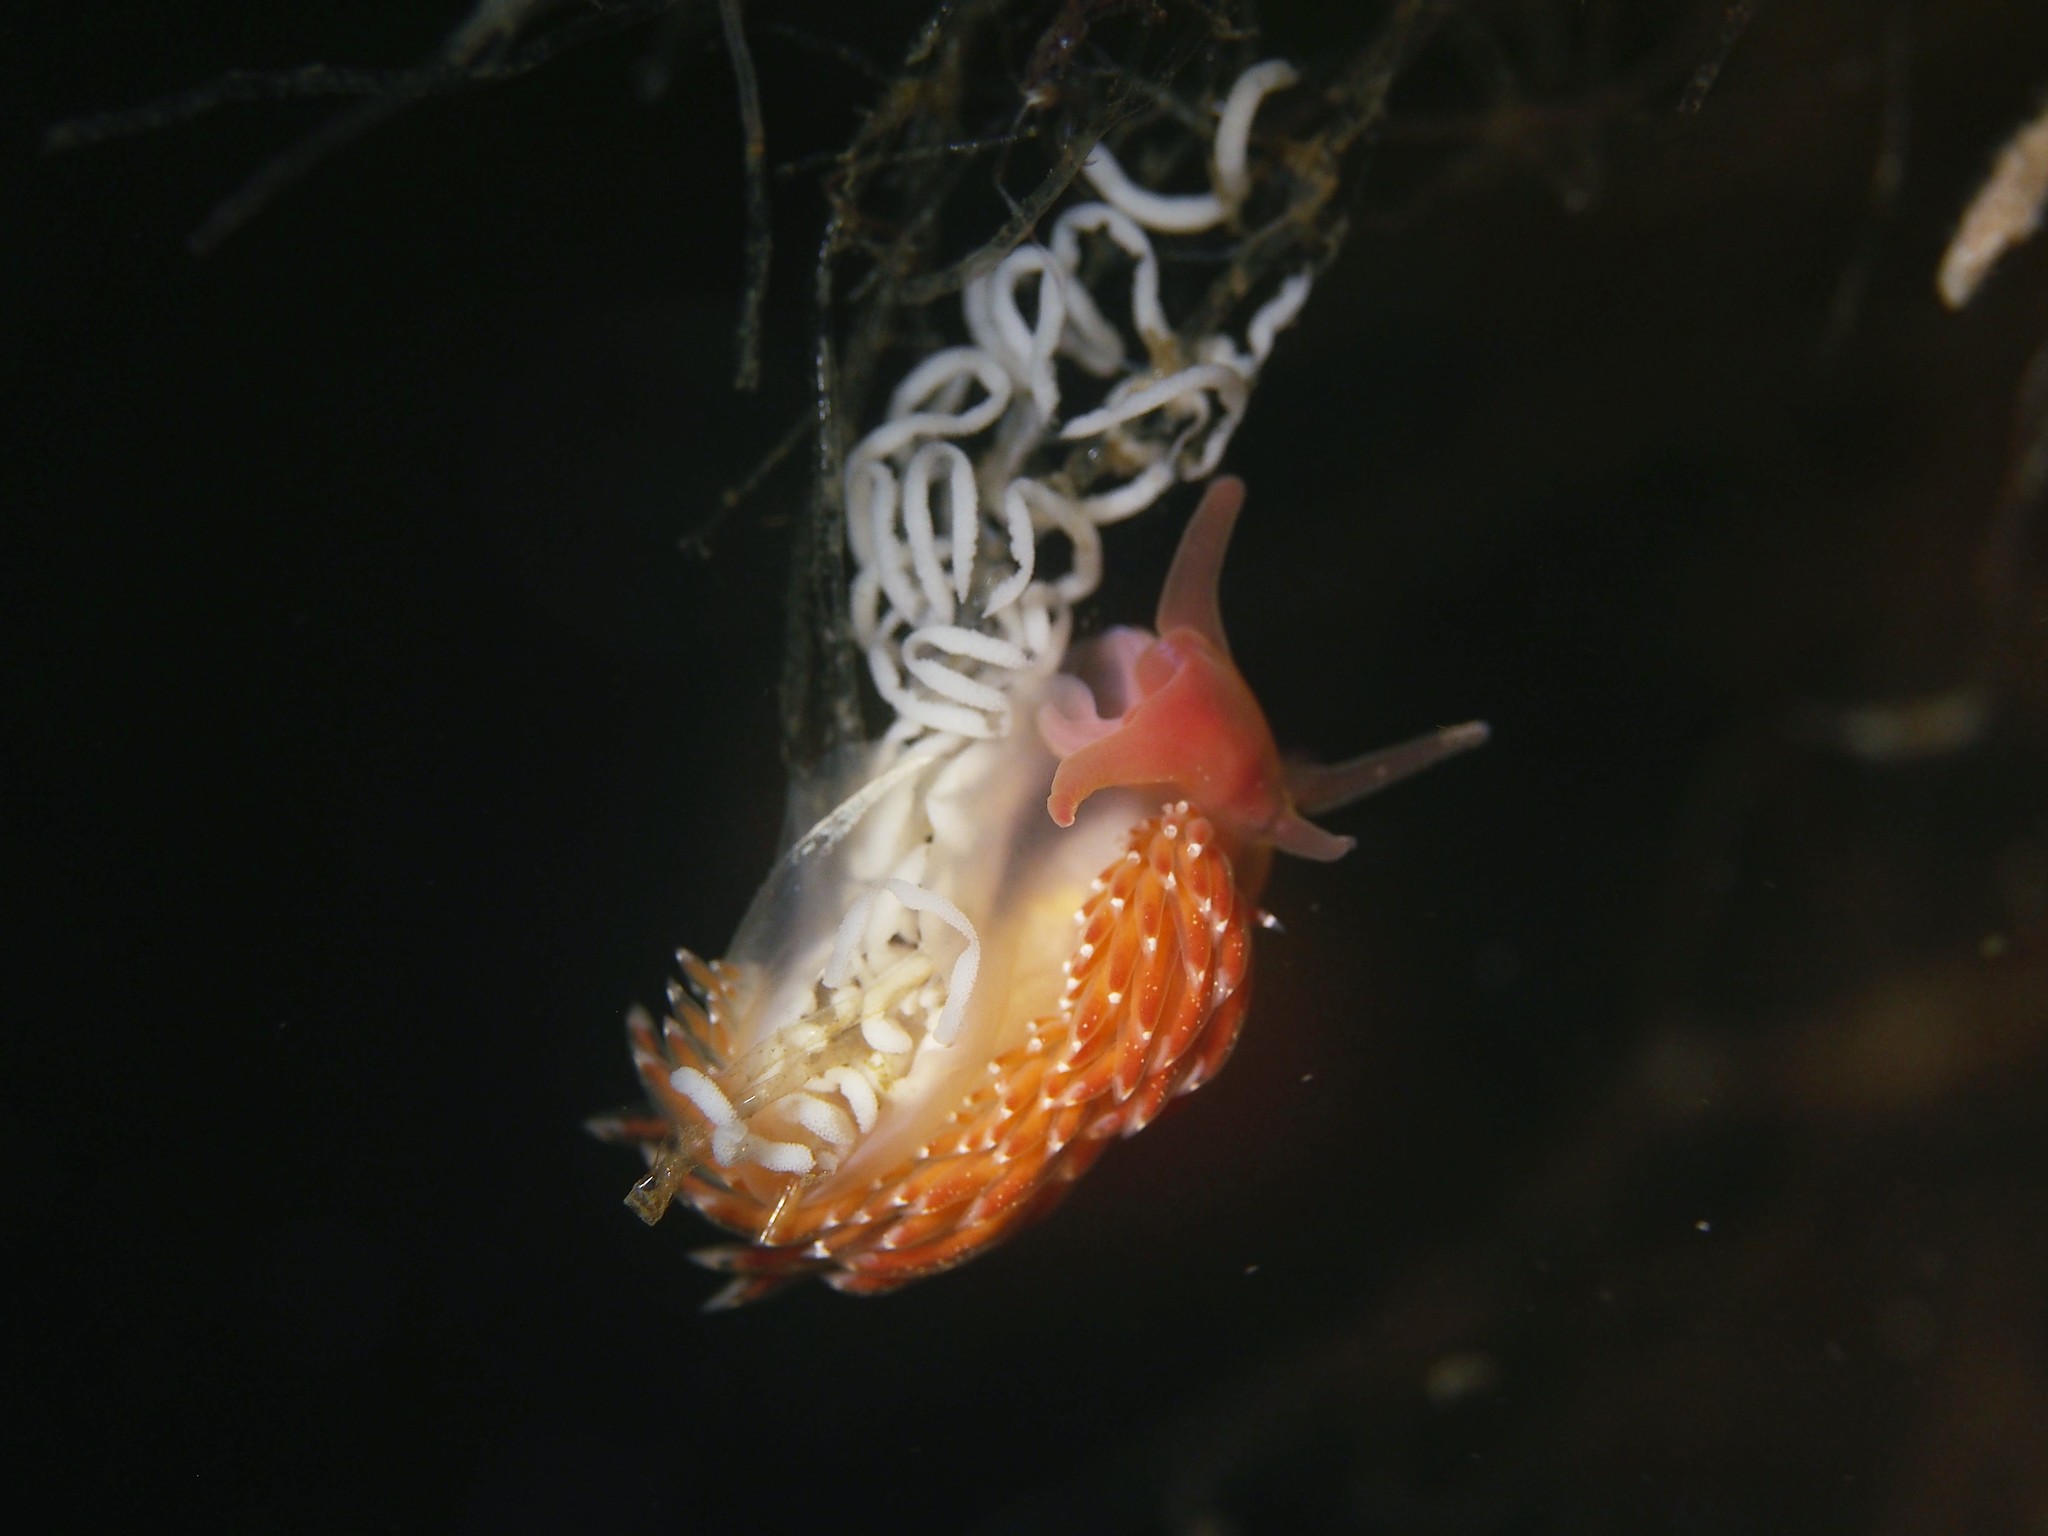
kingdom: Animalia
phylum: Mollusca
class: Gastropoda
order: Nudibranchia
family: Facelinidae
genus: Facelina
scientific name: Facelina bostoniensis
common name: Boston facelina
